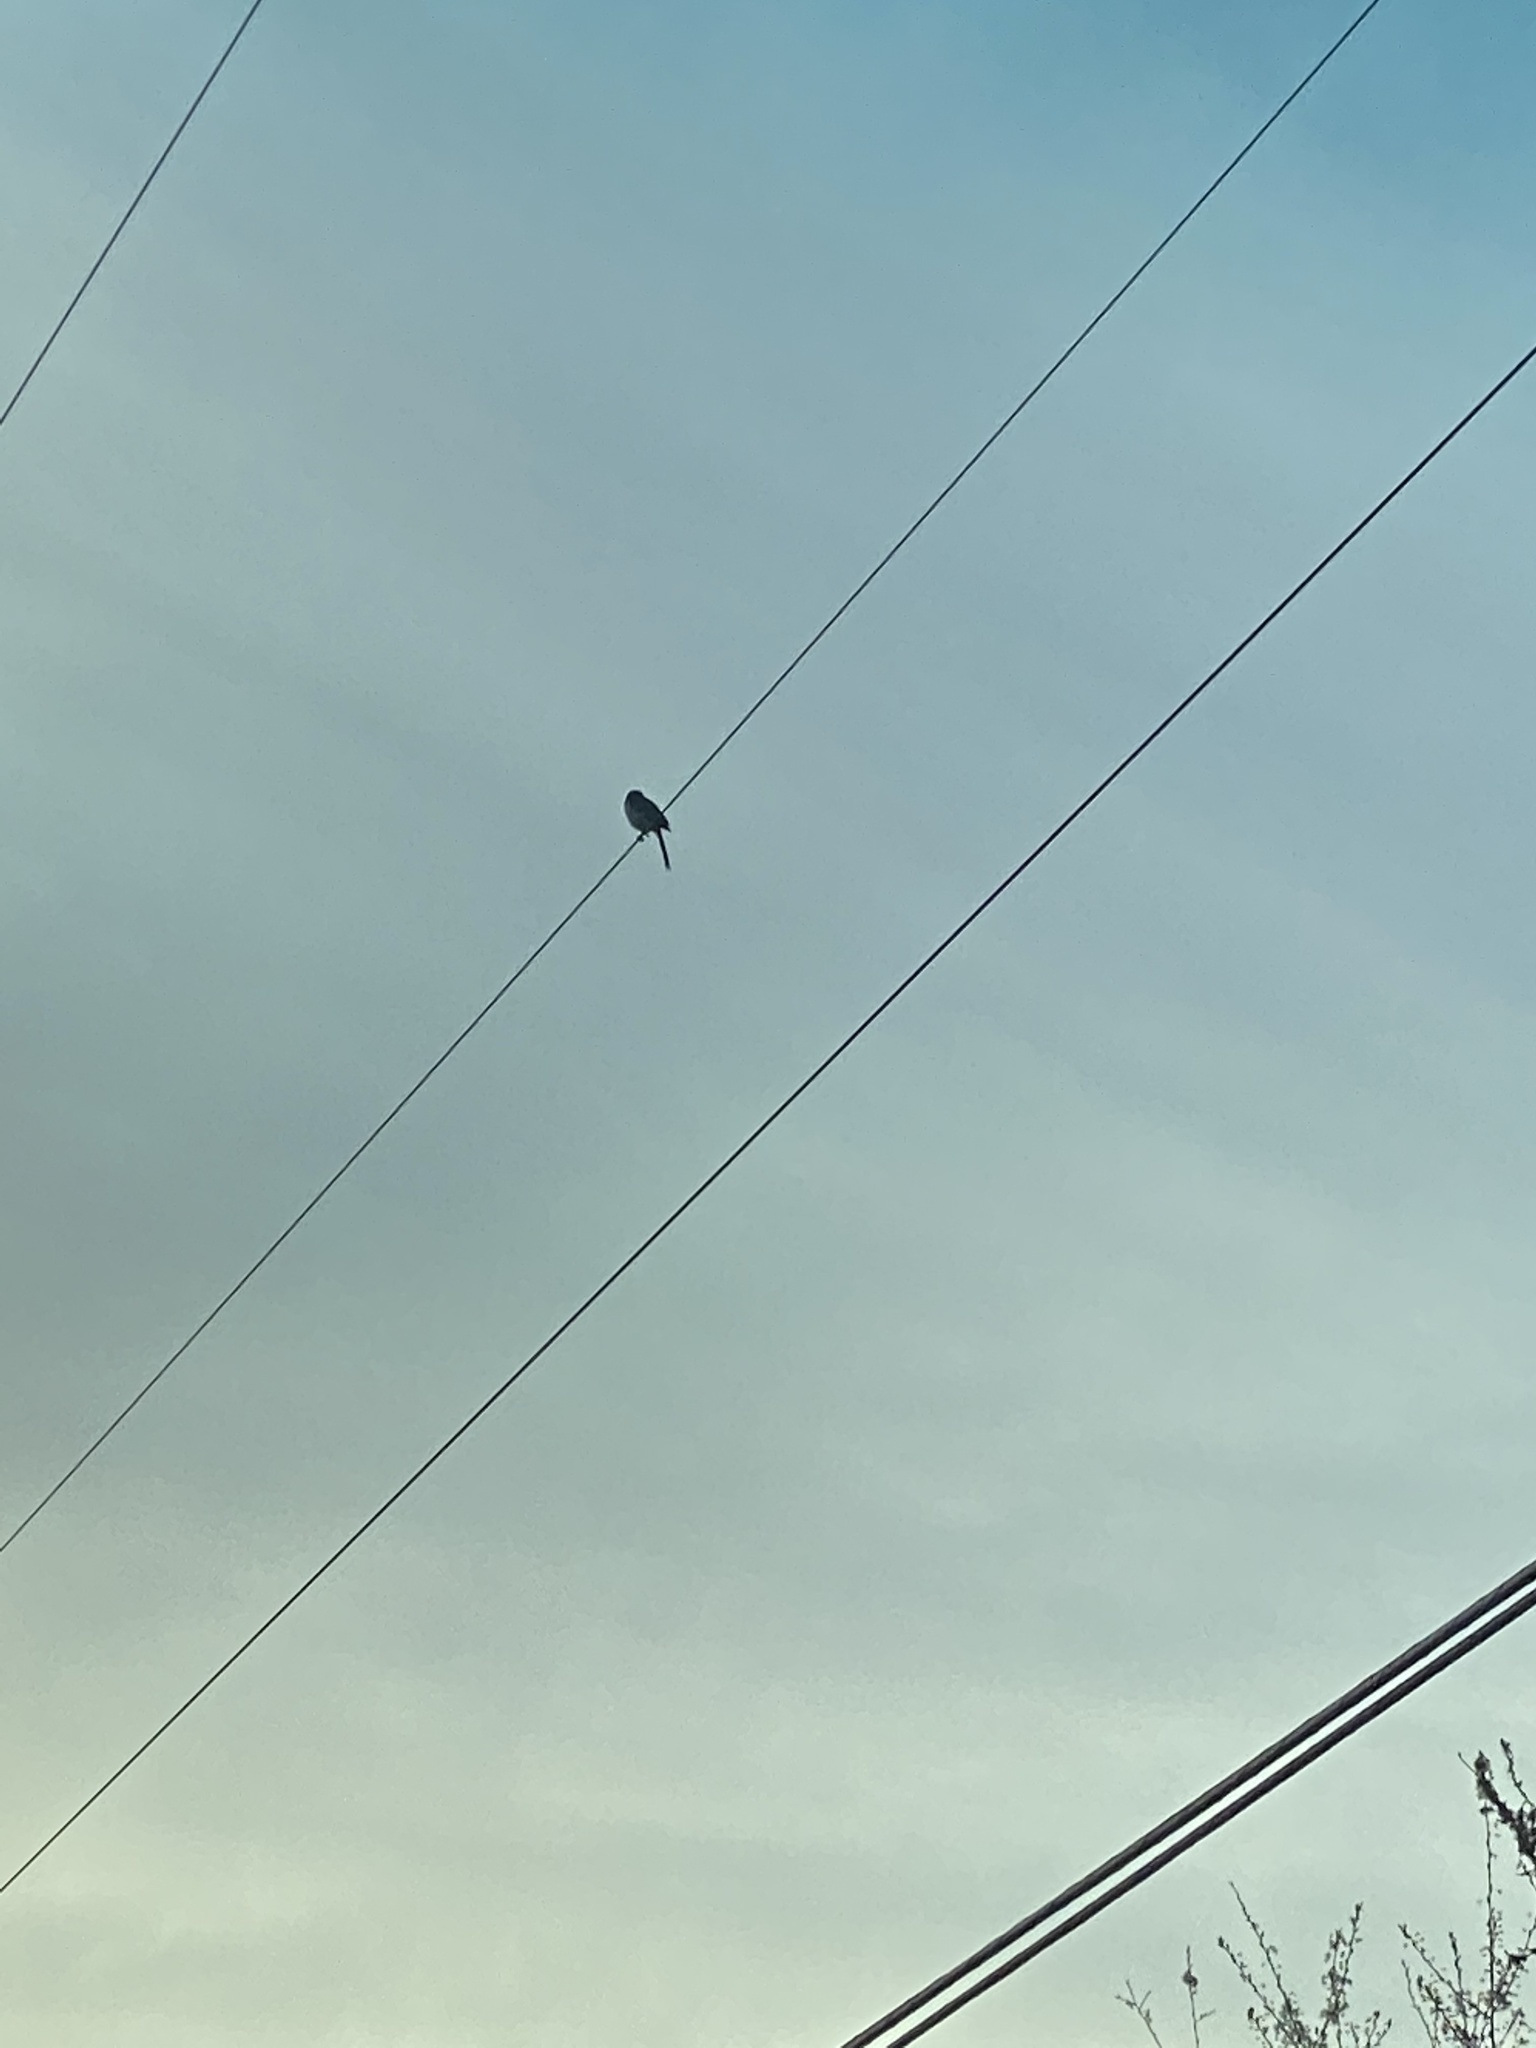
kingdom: Animalia
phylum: Chordata
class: Aves
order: Passeriformes
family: Corvidae
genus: Aphelocoma
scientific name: Aphelocoma californica
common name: California scrub-jay
